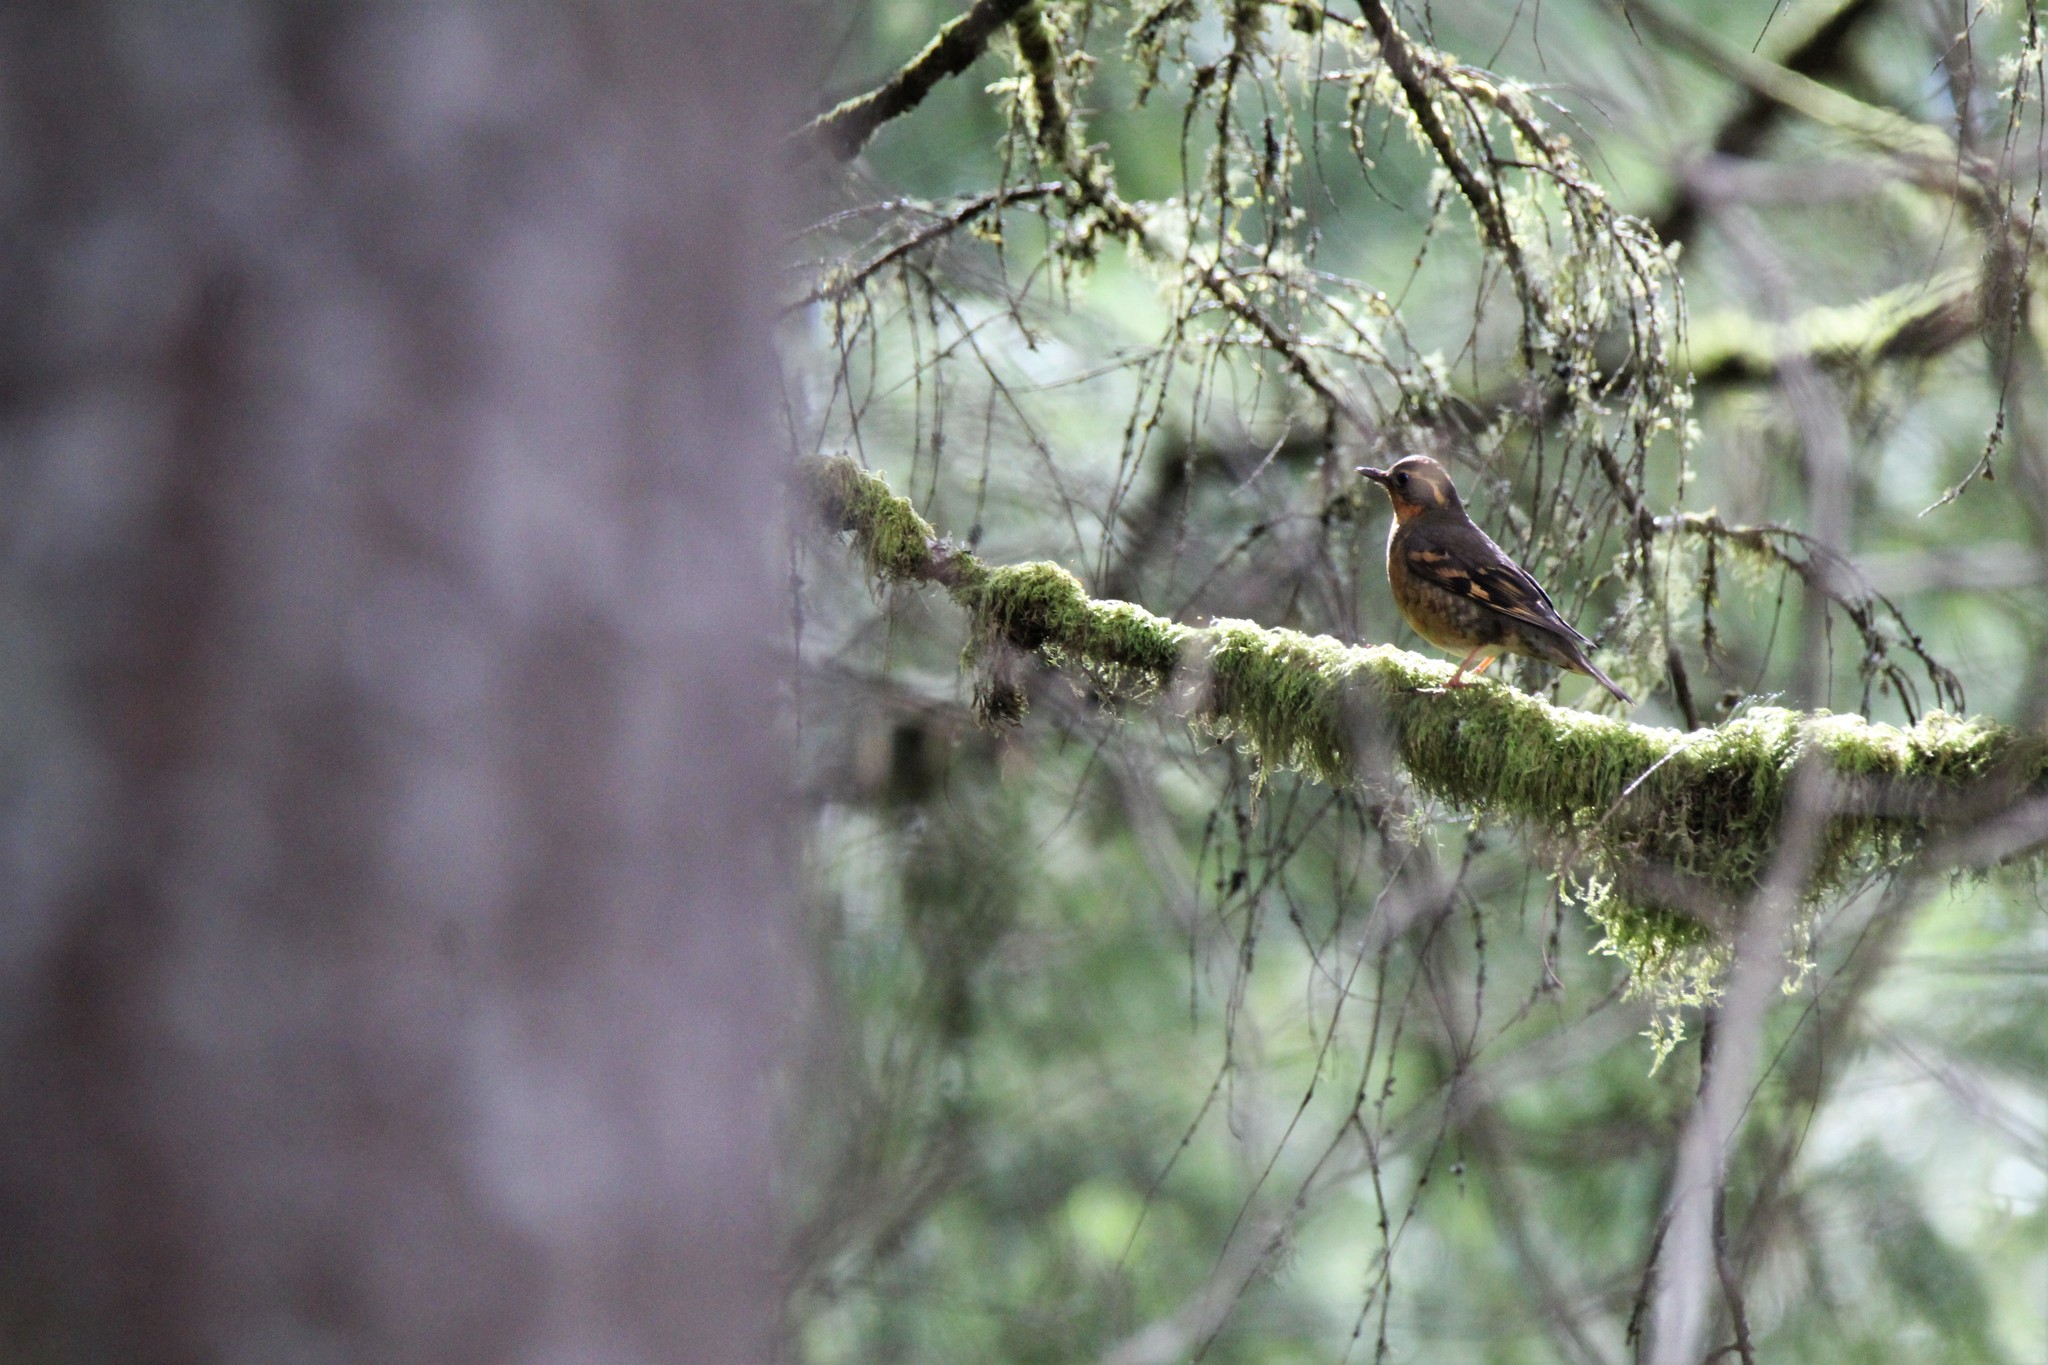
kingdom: Animalia
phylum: Chordata
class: Aves
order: Passeriformes
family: Turdidae
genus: Ixoreus
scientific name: Ixoreus naevius
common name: Varied thrush
